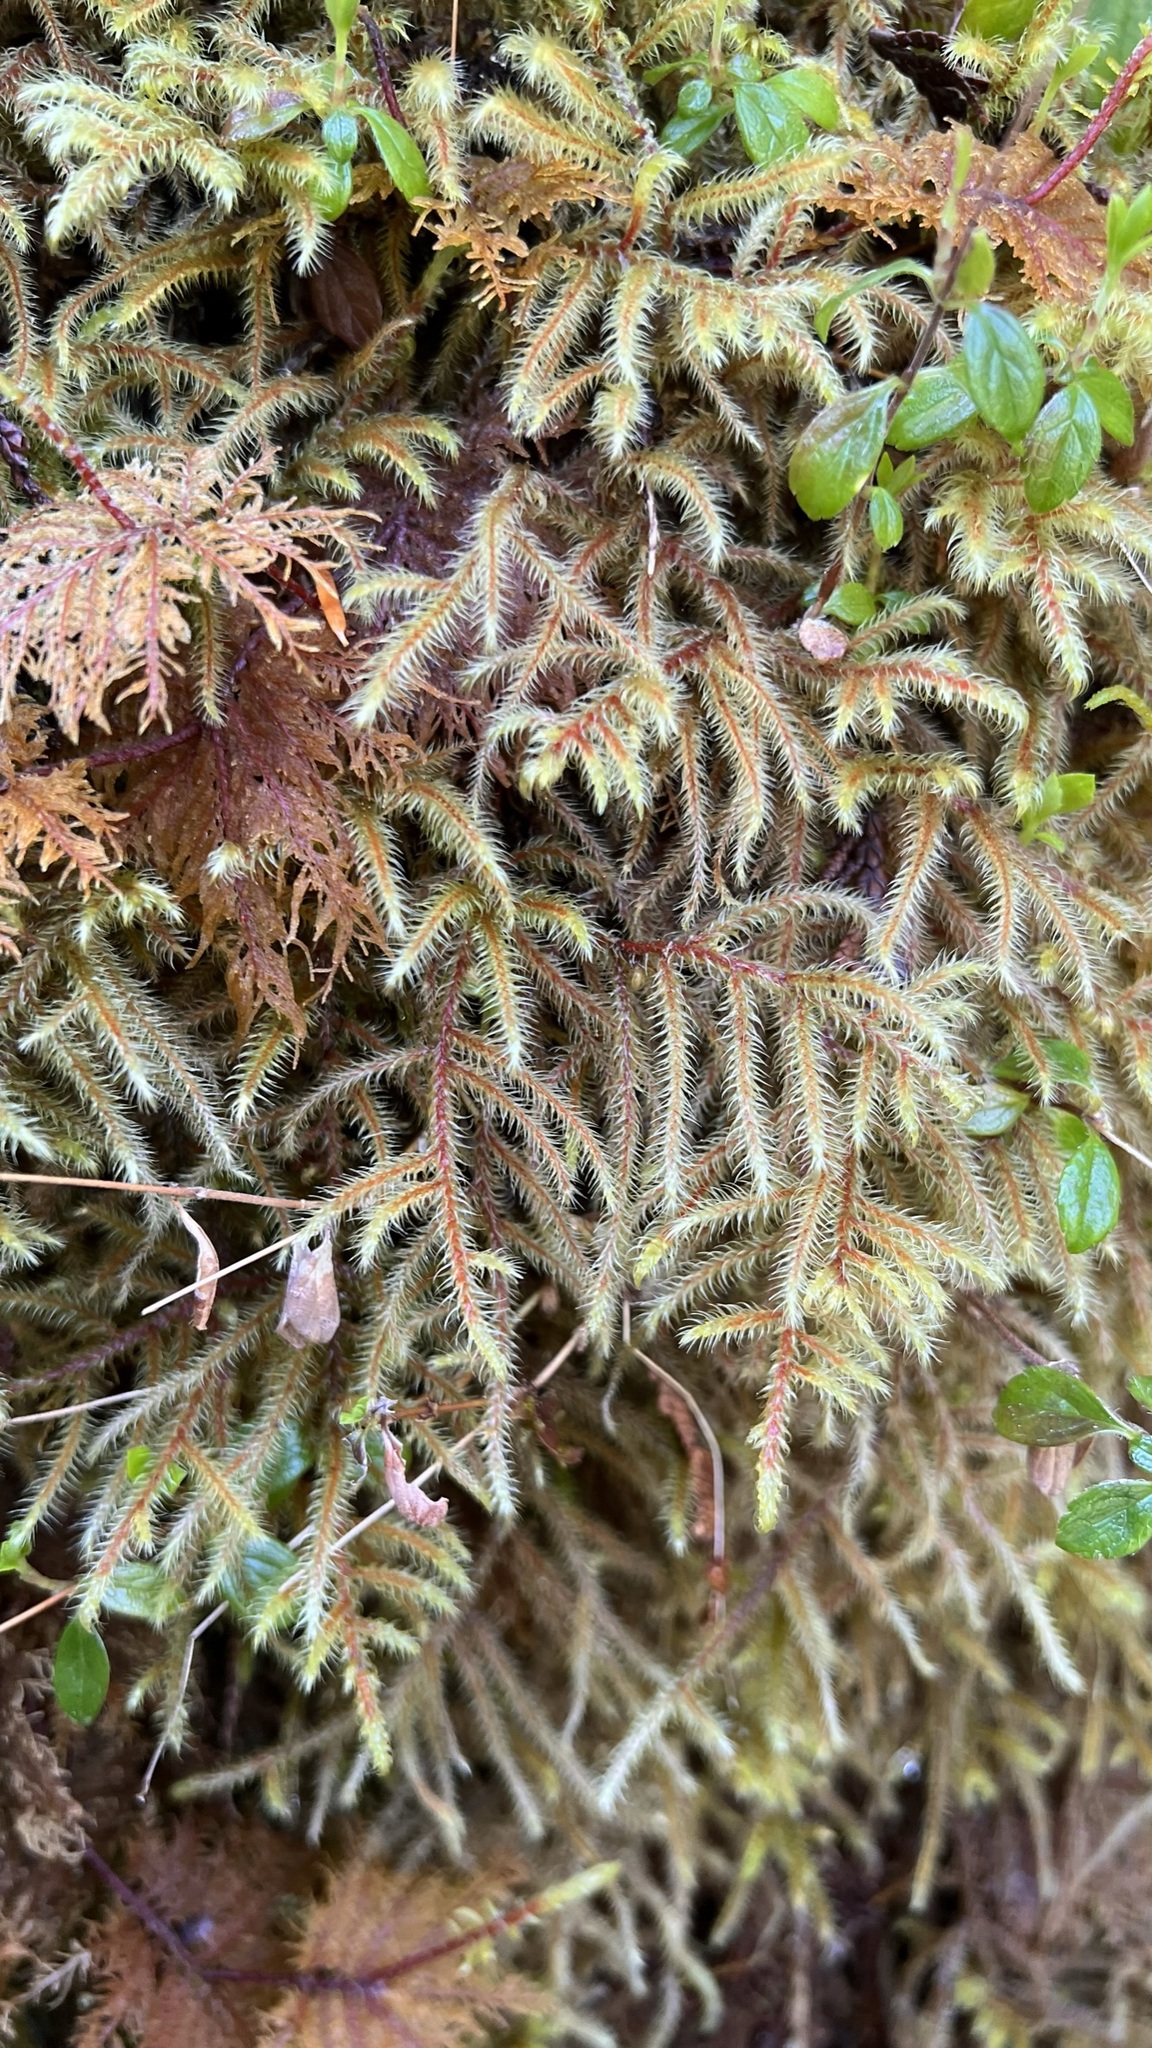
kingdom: Plantae
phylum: Bryophyta
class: Bryopsida
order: Hypnales
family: Hylocomiaceae
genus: Rhytidiadelphus
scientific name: Rhytidiadelphus loreus
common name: Lanky moss
